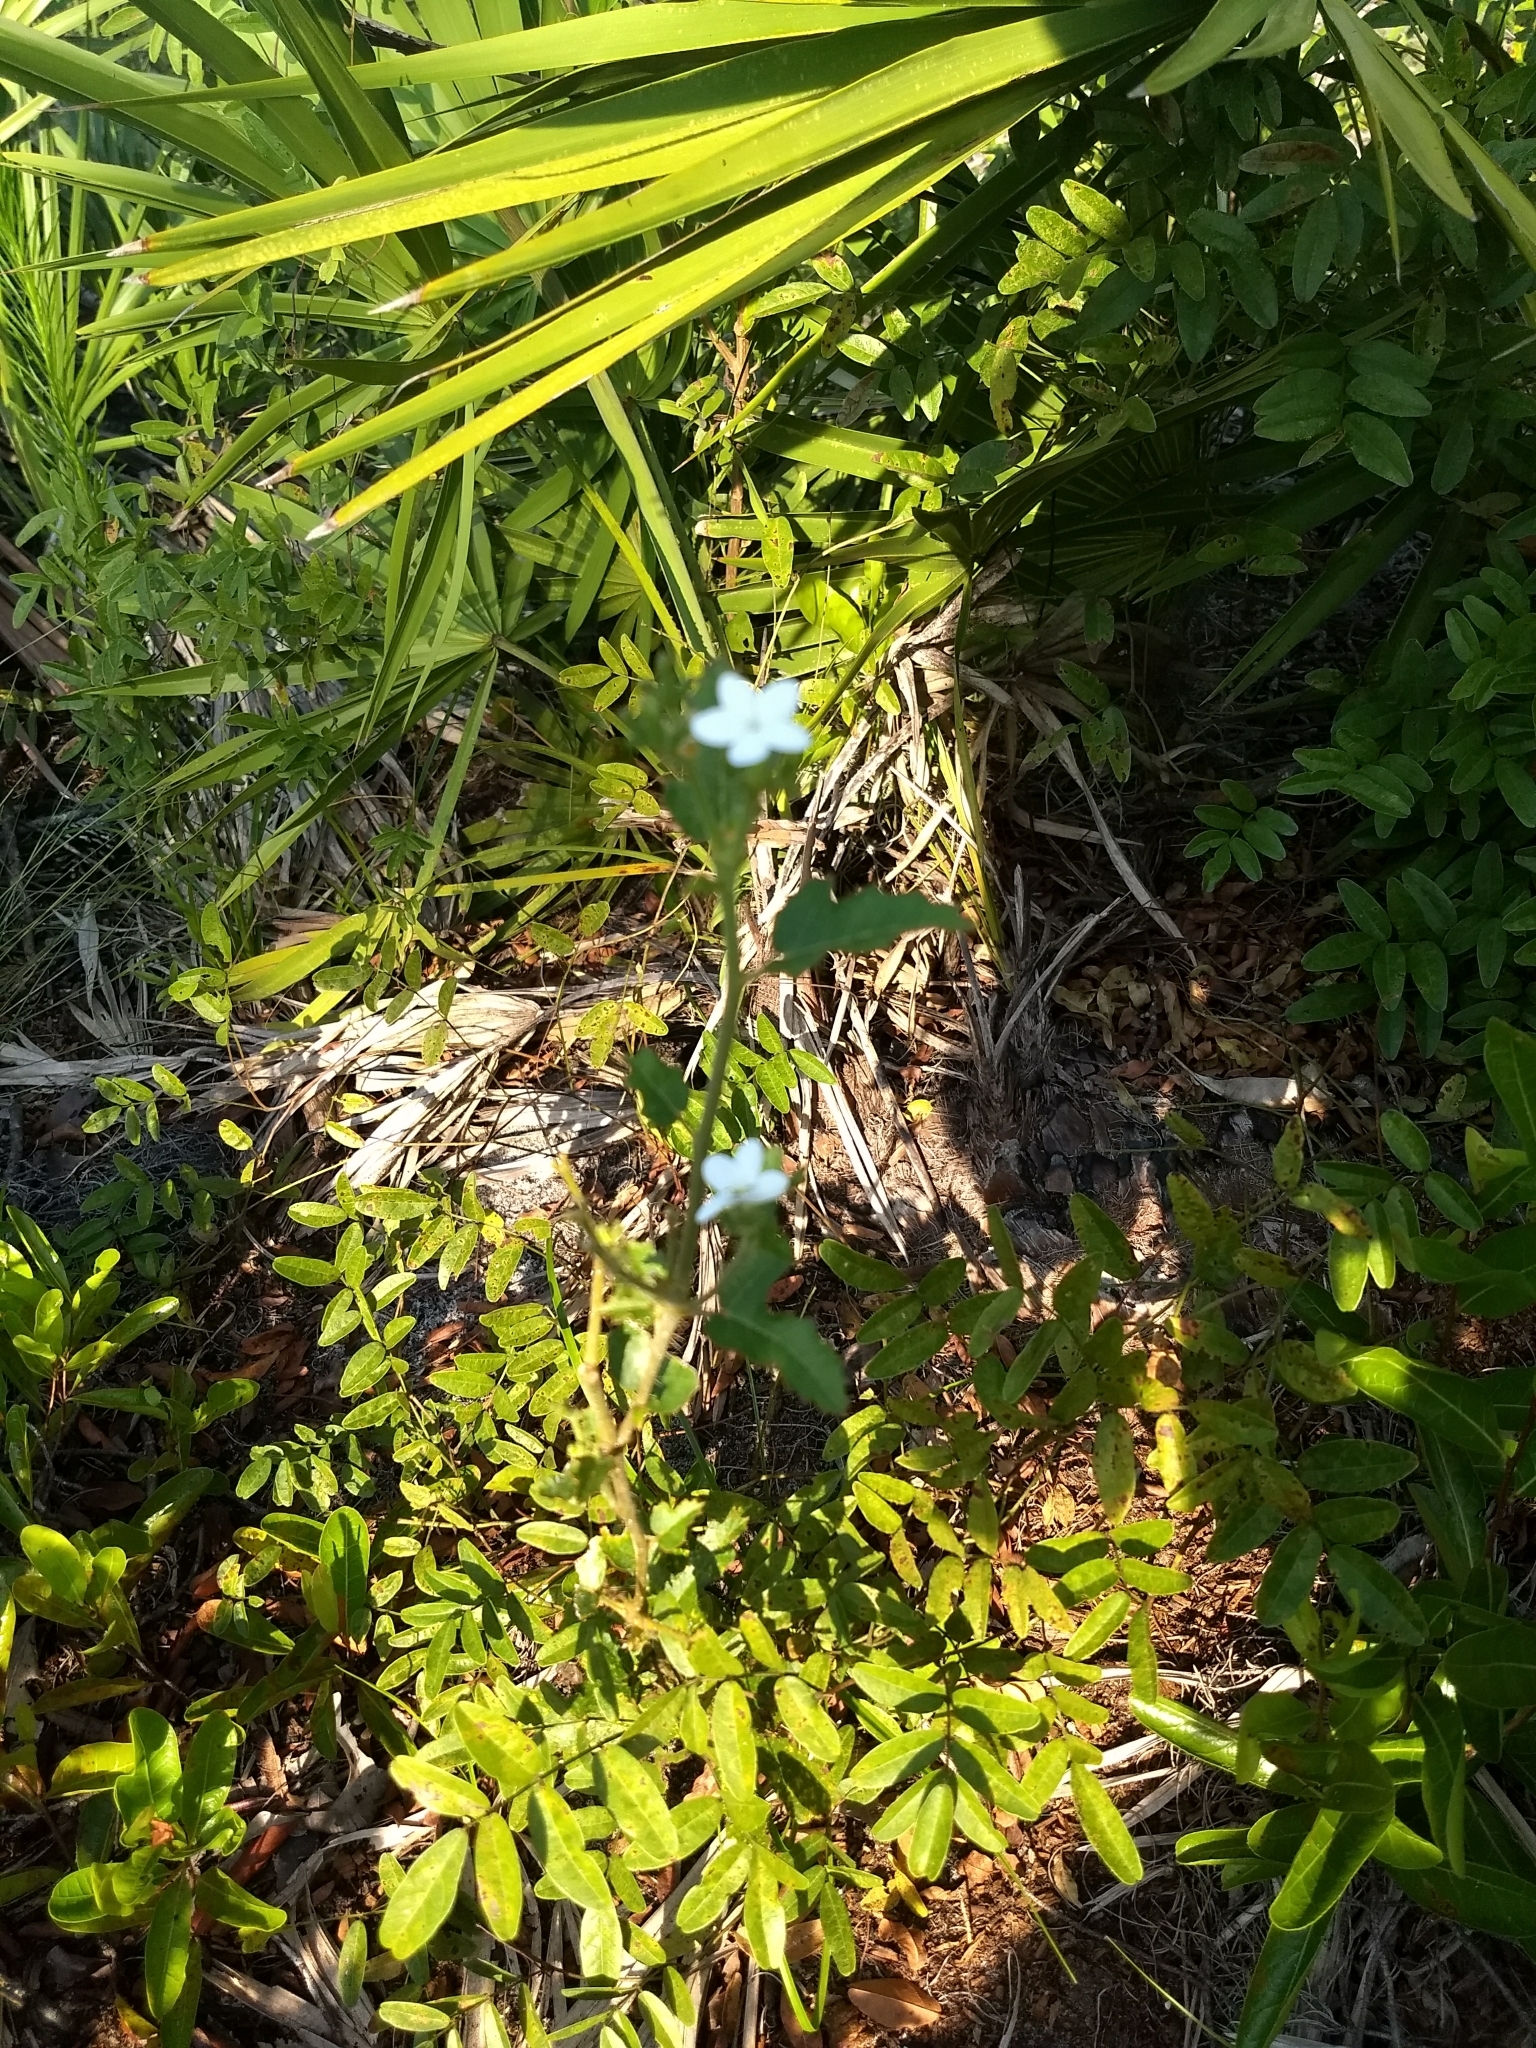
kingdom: Plantae
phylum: Tracheophyta
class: Magnoliopsida
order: Malpighiales
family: Euphorbiaceae
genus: Cnidoscolus
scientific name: Cnidoscolus stimulosus
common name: Bull-nettle
